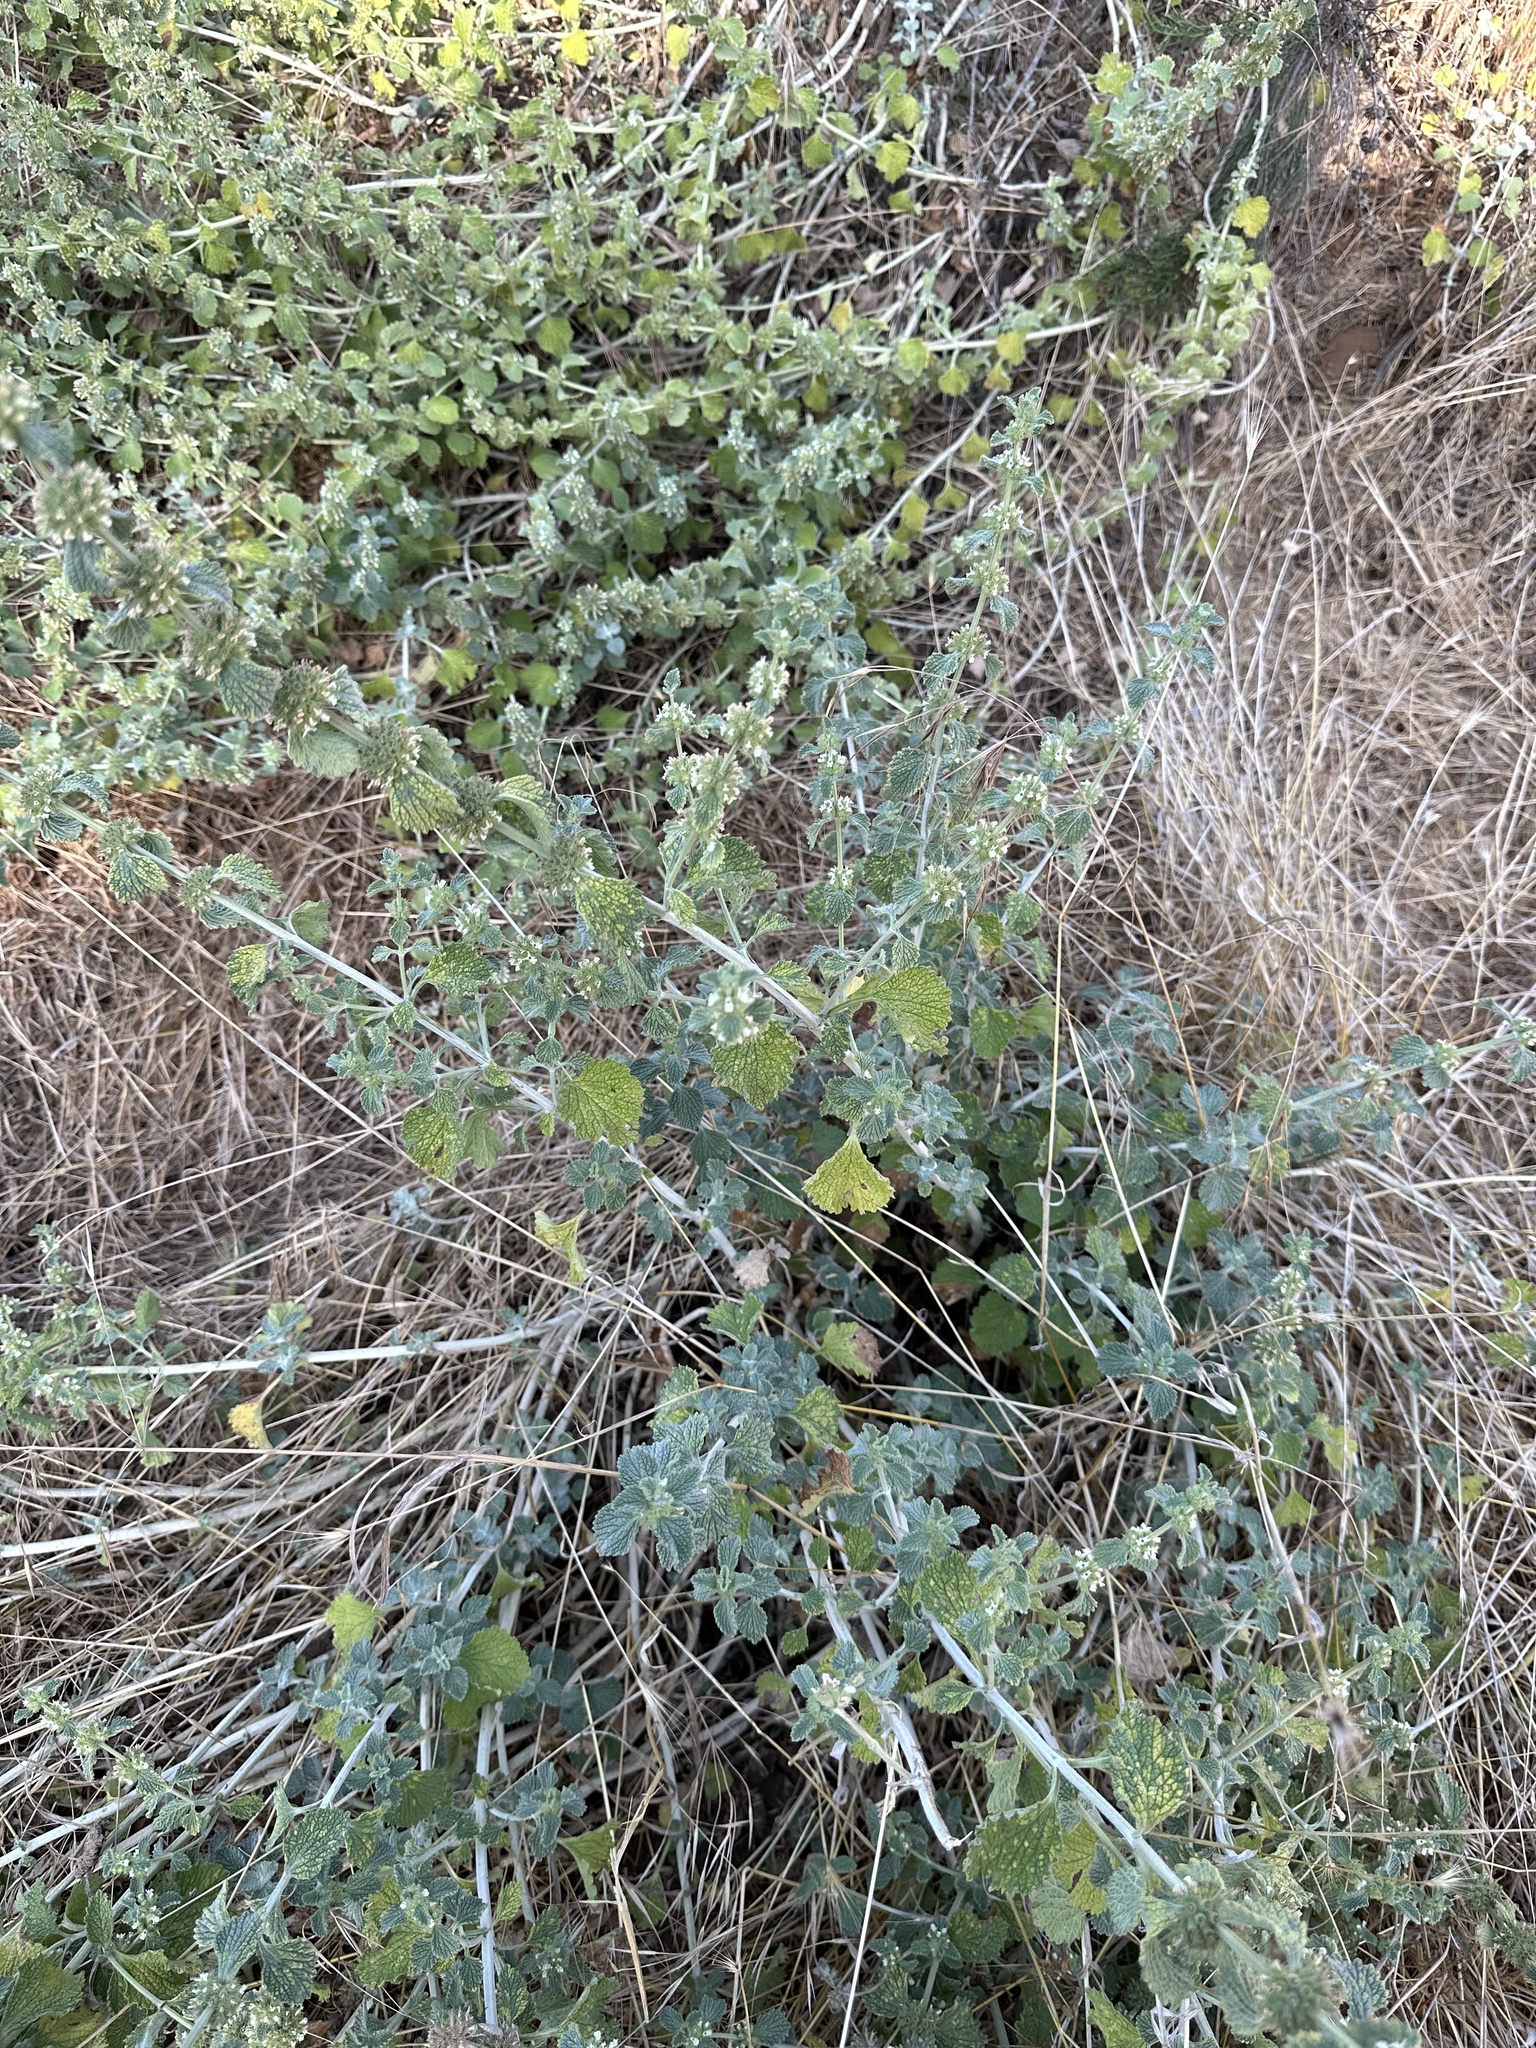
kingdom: Plantae
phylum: Tracheophyta
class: Magnoliopsida
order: Lamiales
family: Lamiaceae
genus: Marrubium
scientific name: Marrubium vulgare
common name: Horehound
